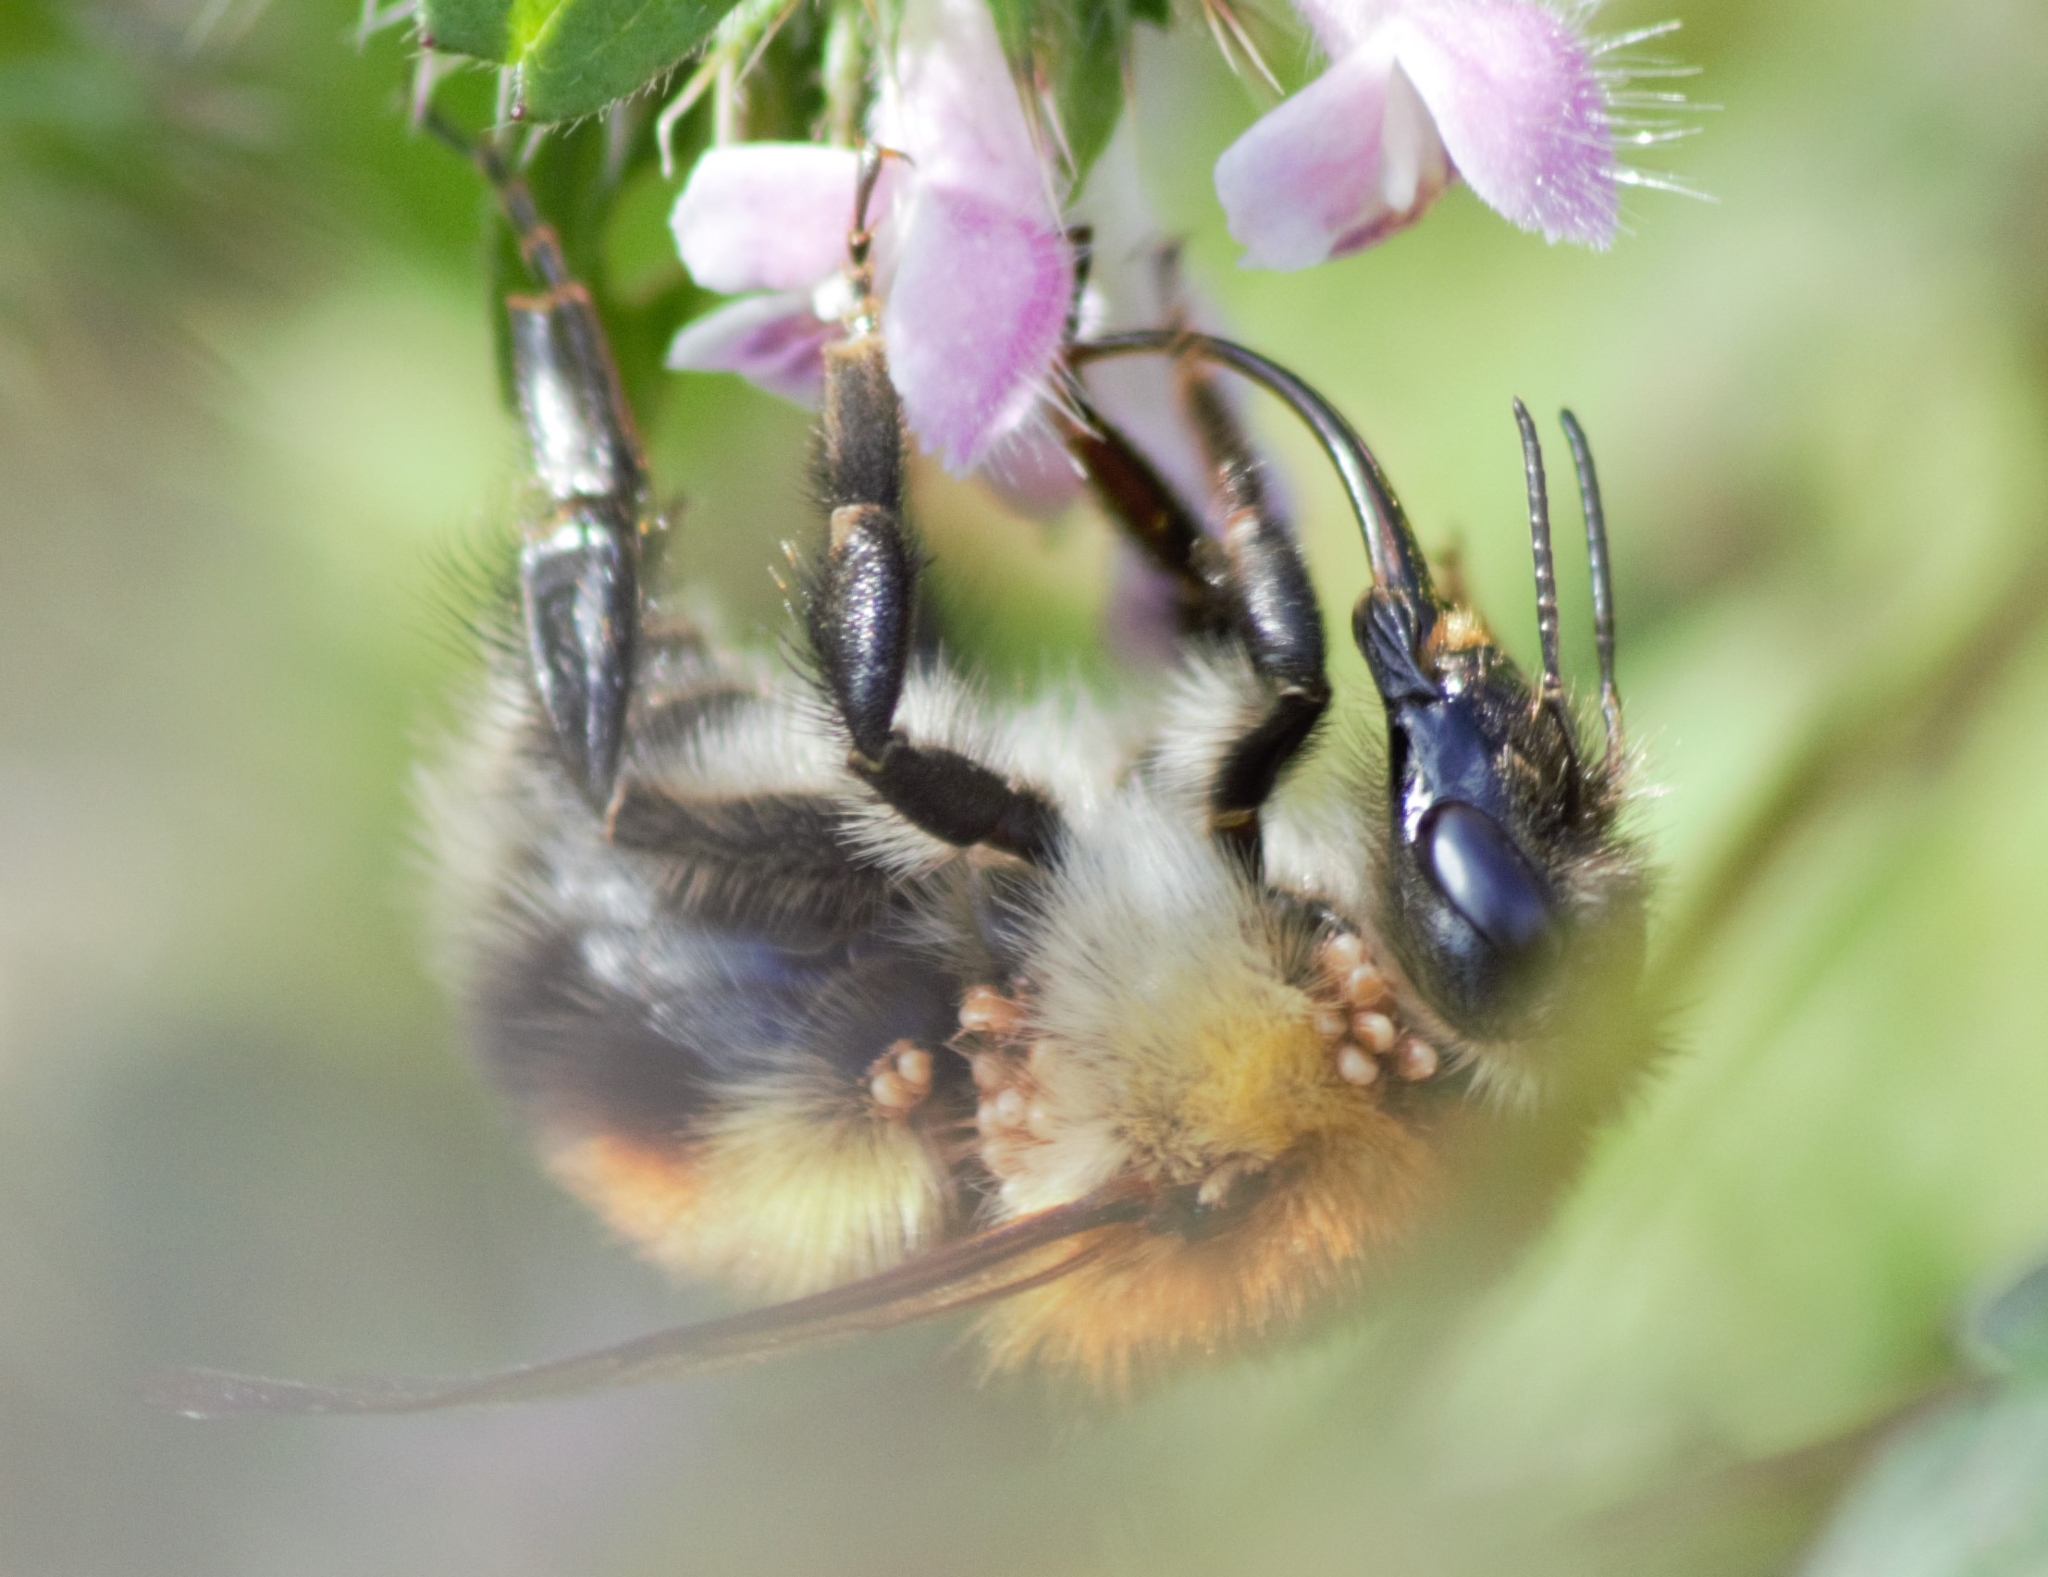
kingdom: Animalia
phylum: Arthropoda
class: Insecta
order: Hymenoptera
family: Apidae
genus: Bombus
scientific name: Bombus consobrinus
